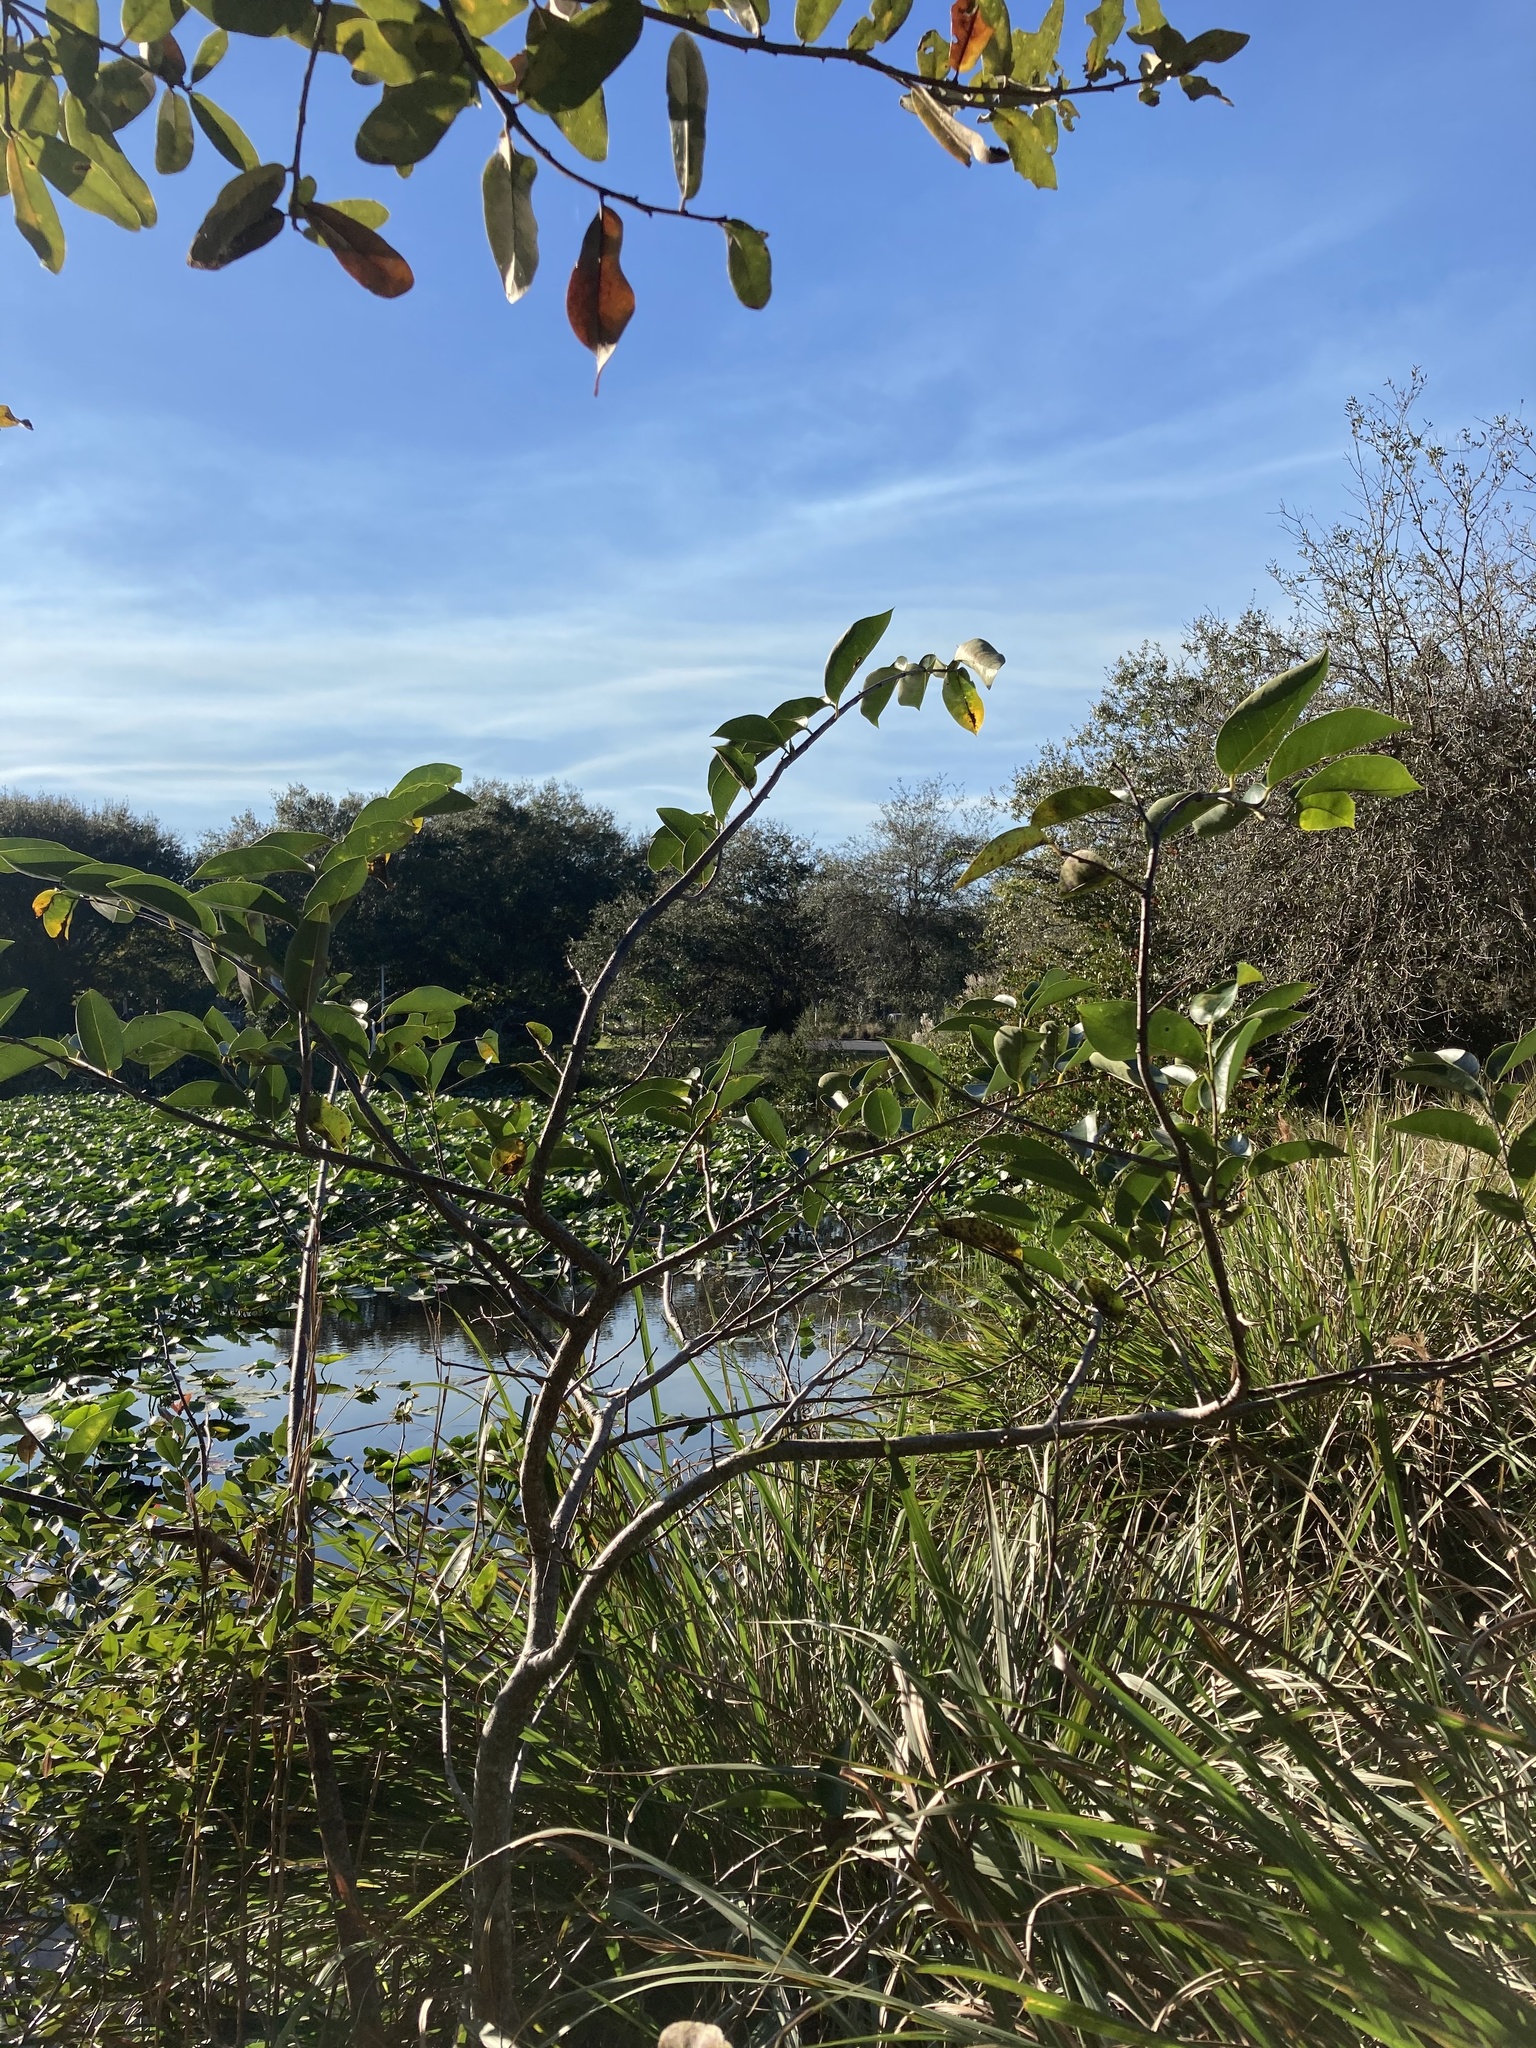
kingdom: Plantae
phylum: Tracheophyta
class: Magnoliopsida
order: Magnoliales
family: Annonaceae
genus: Annona
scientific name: Annona glabra
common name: Monkey apple
